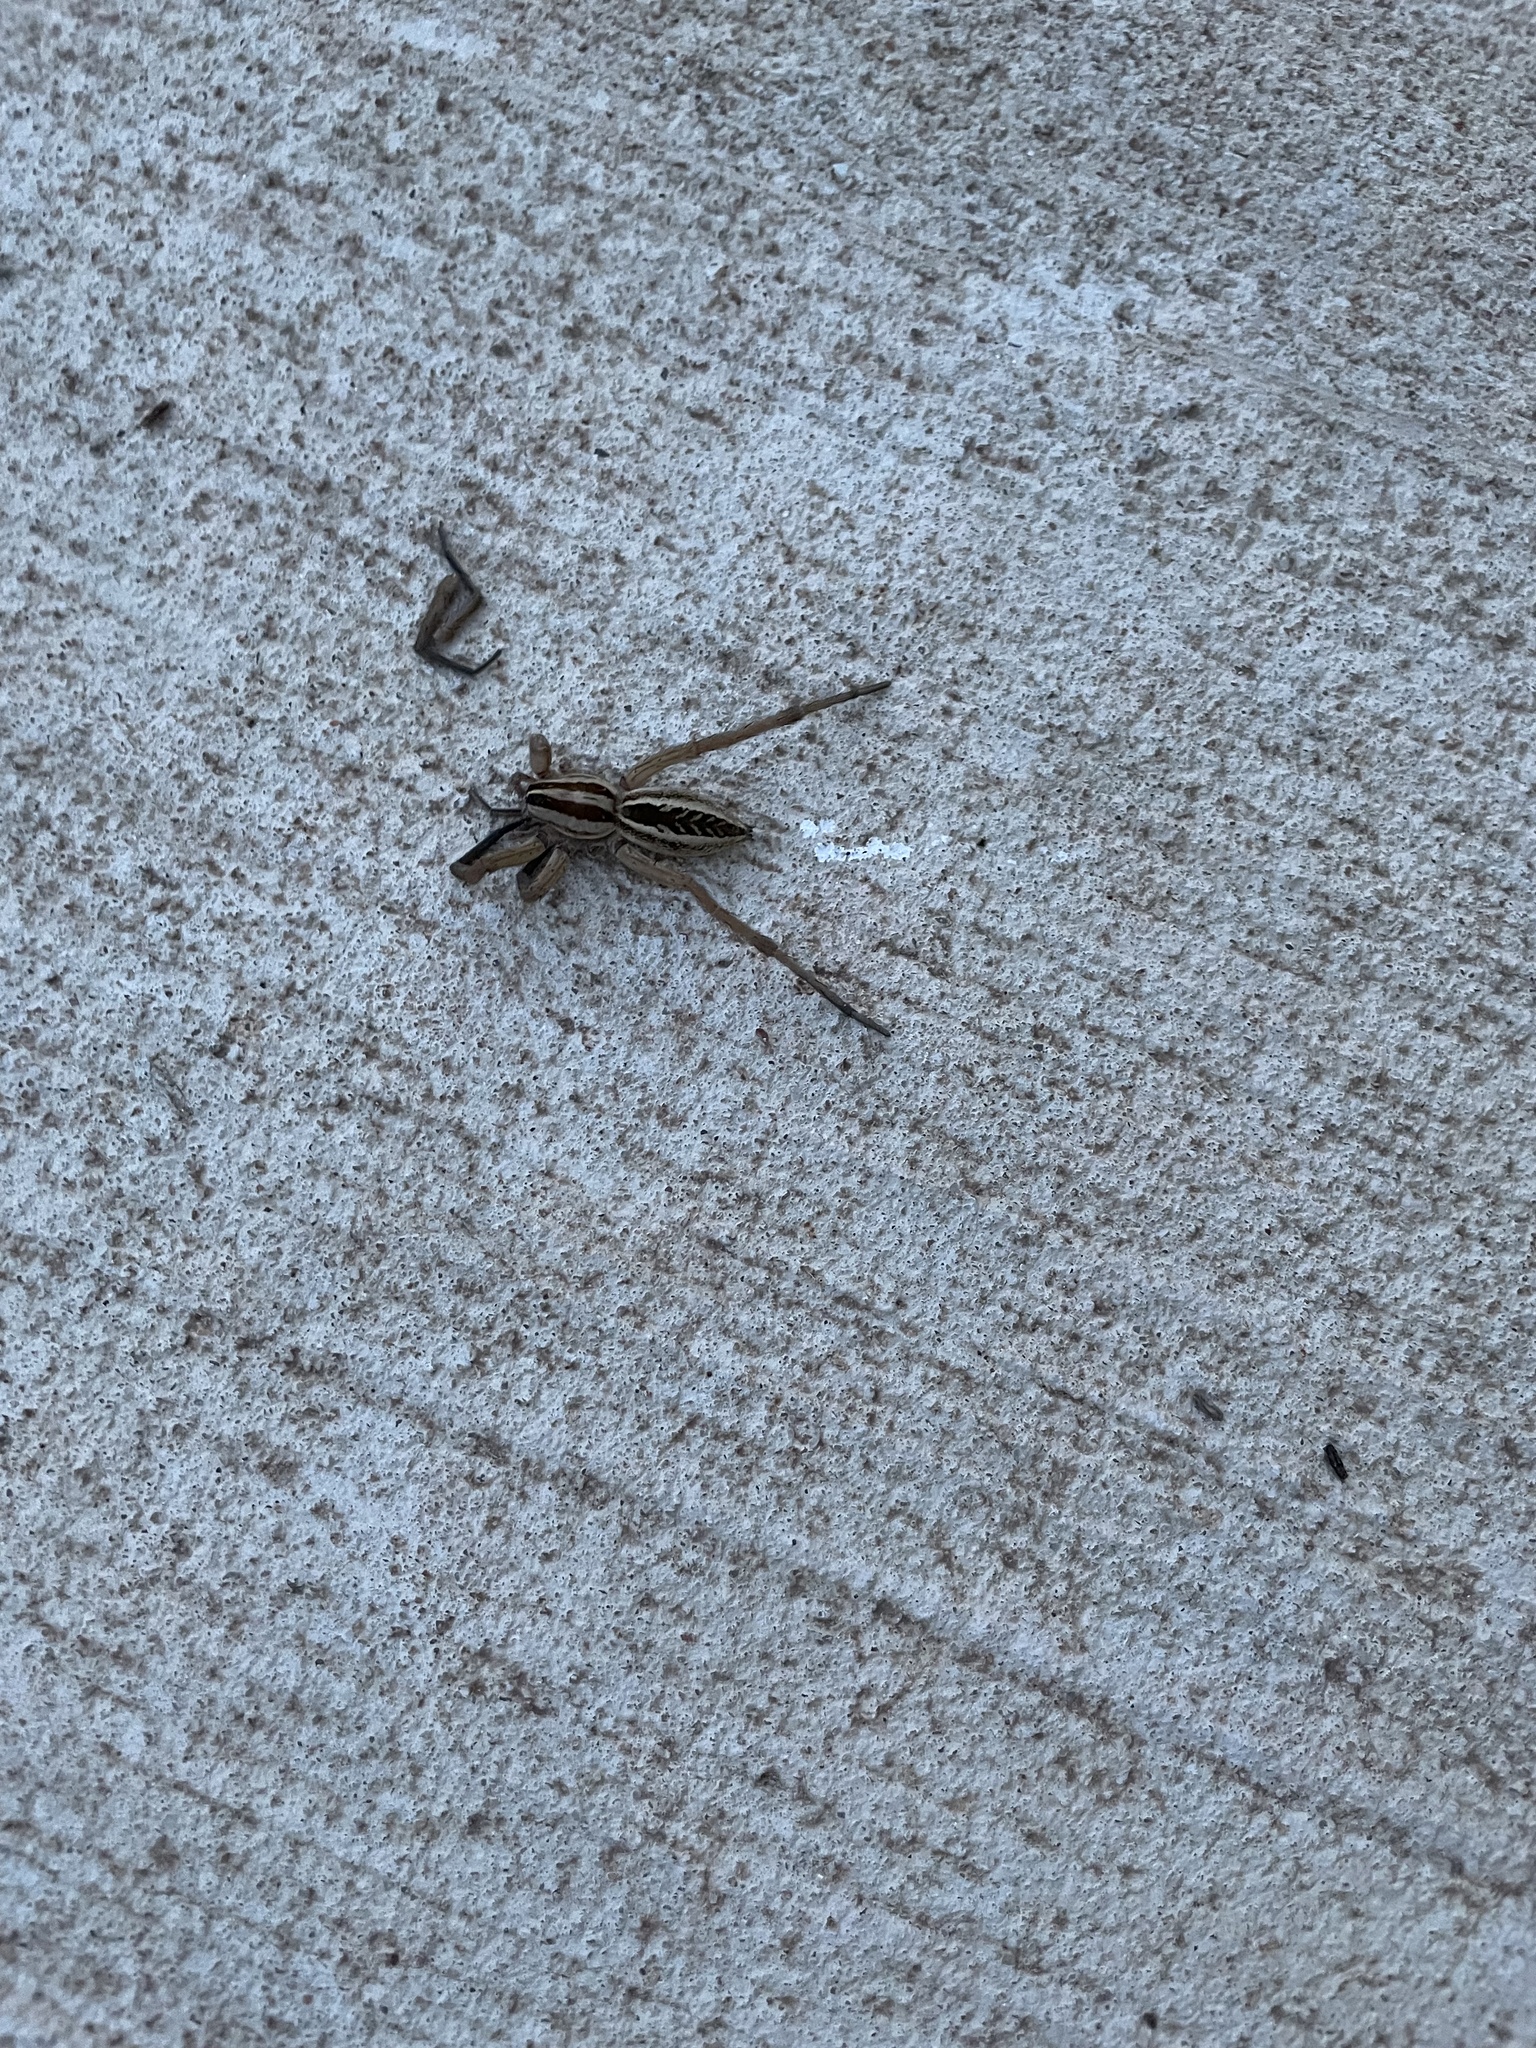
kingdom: Animalia
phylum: Arthropoda
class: Arachnida
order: Araneae
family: Lycosidae
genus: Rabidosa
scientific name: Rabidosa rabida
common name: Rabid wolf spider
